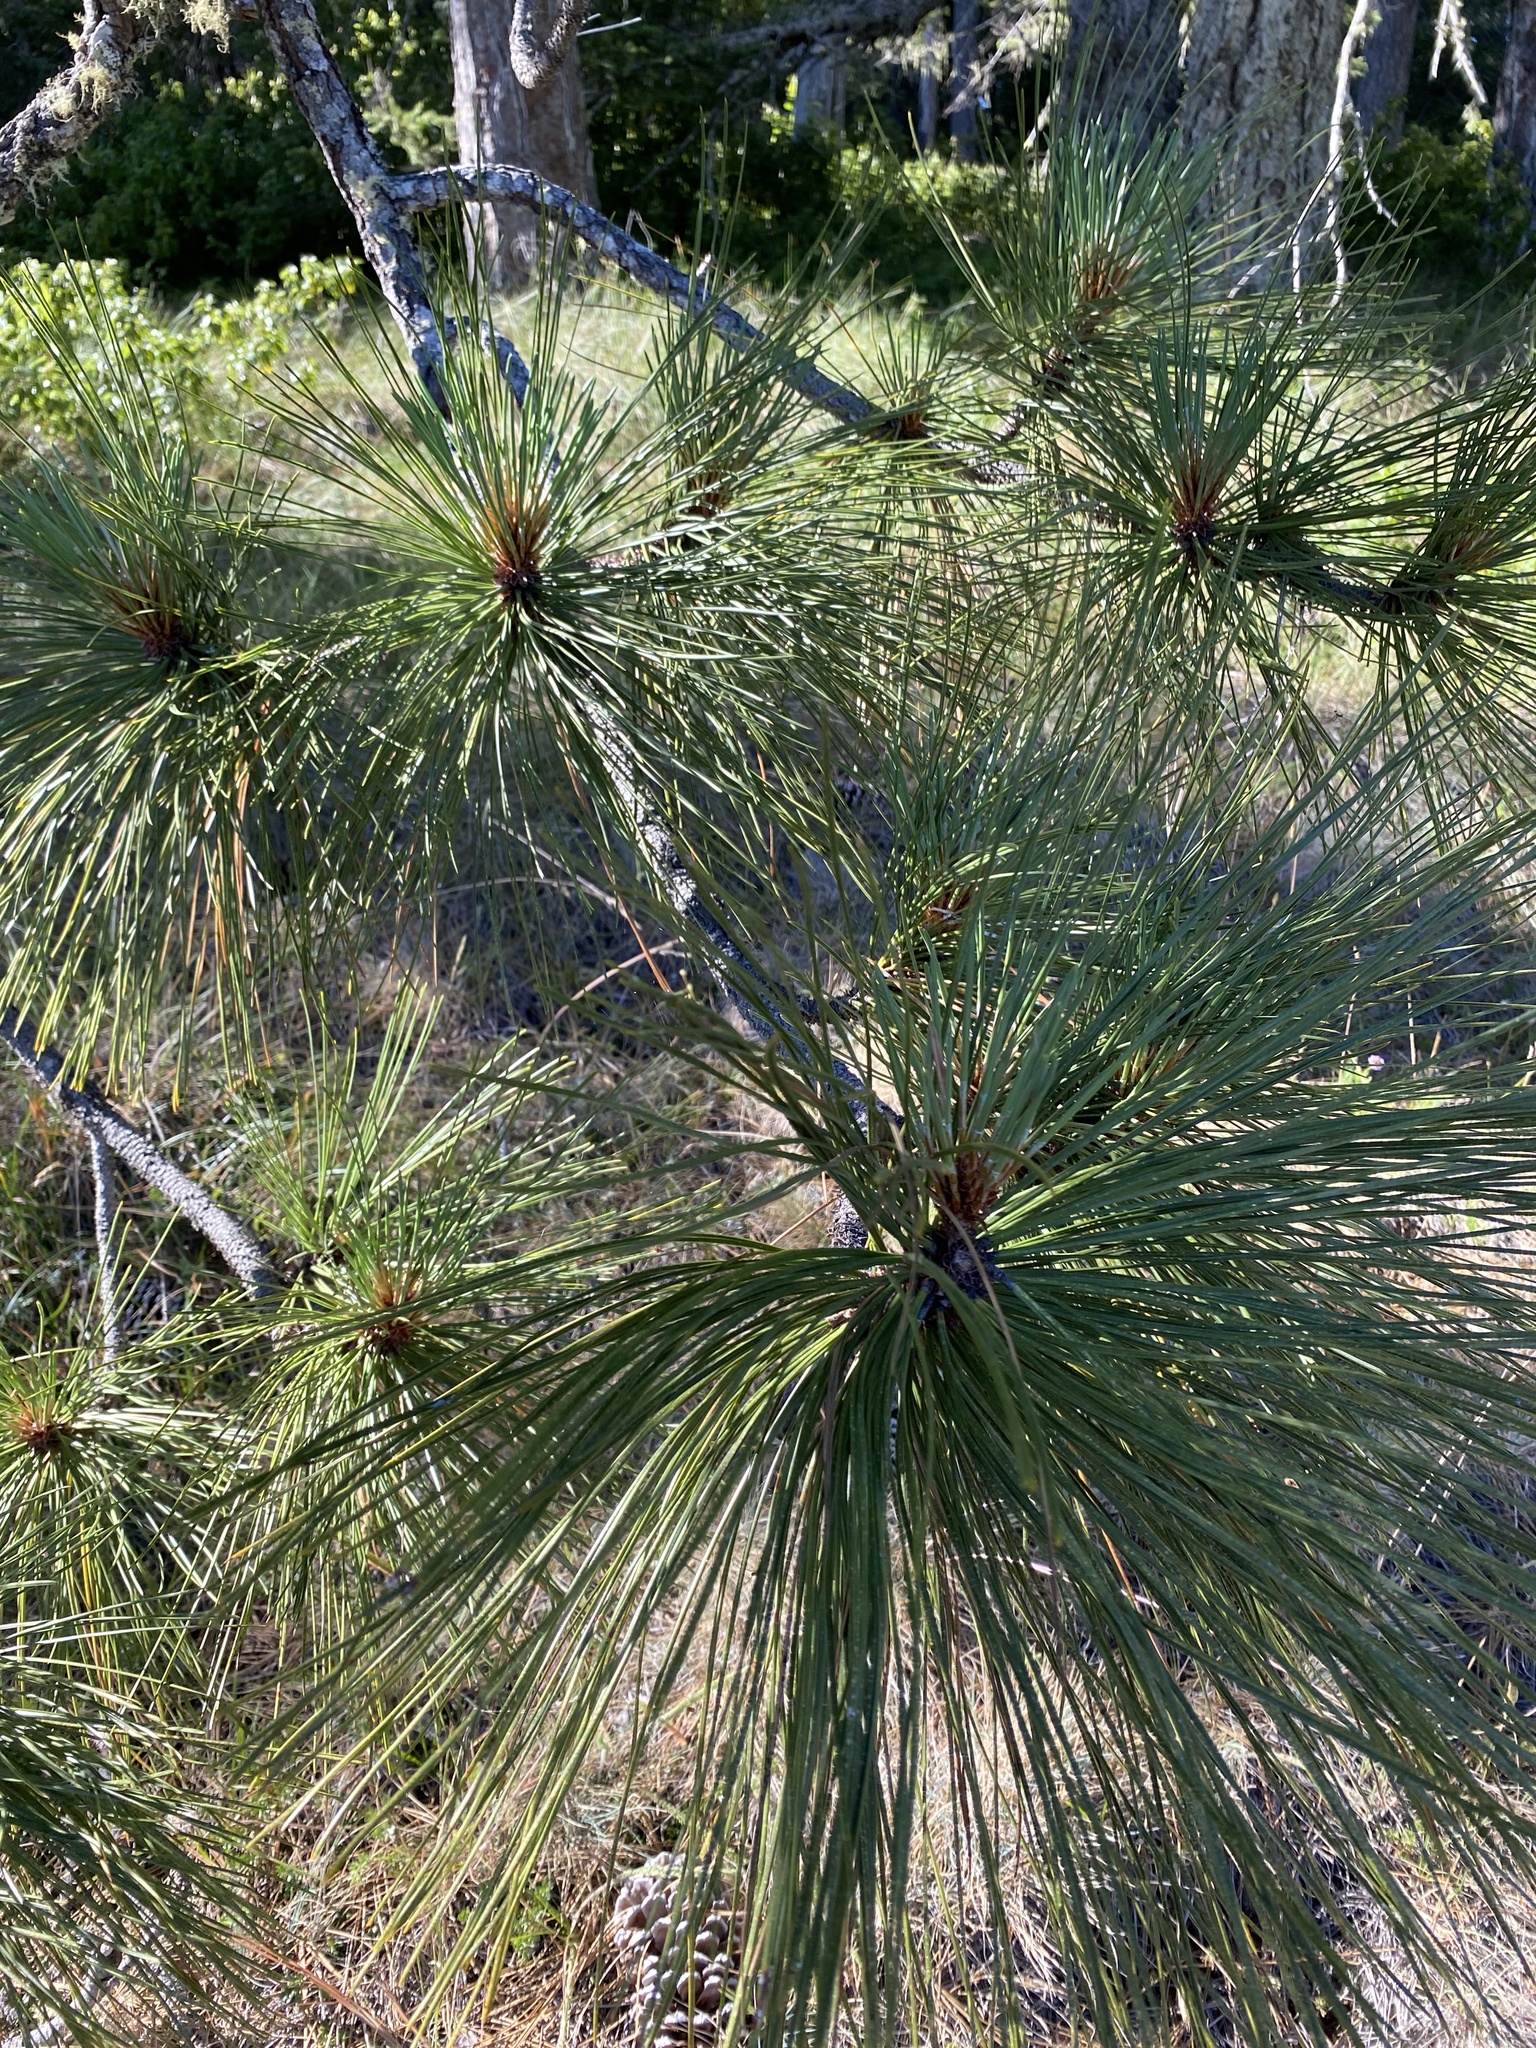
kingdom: Plantae
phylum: Tracheophyta
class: Pinopsida
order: Pinales
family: Pinaceae
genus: Pinus
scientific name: Pinus jeffreyi
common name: Jeffrey pine
